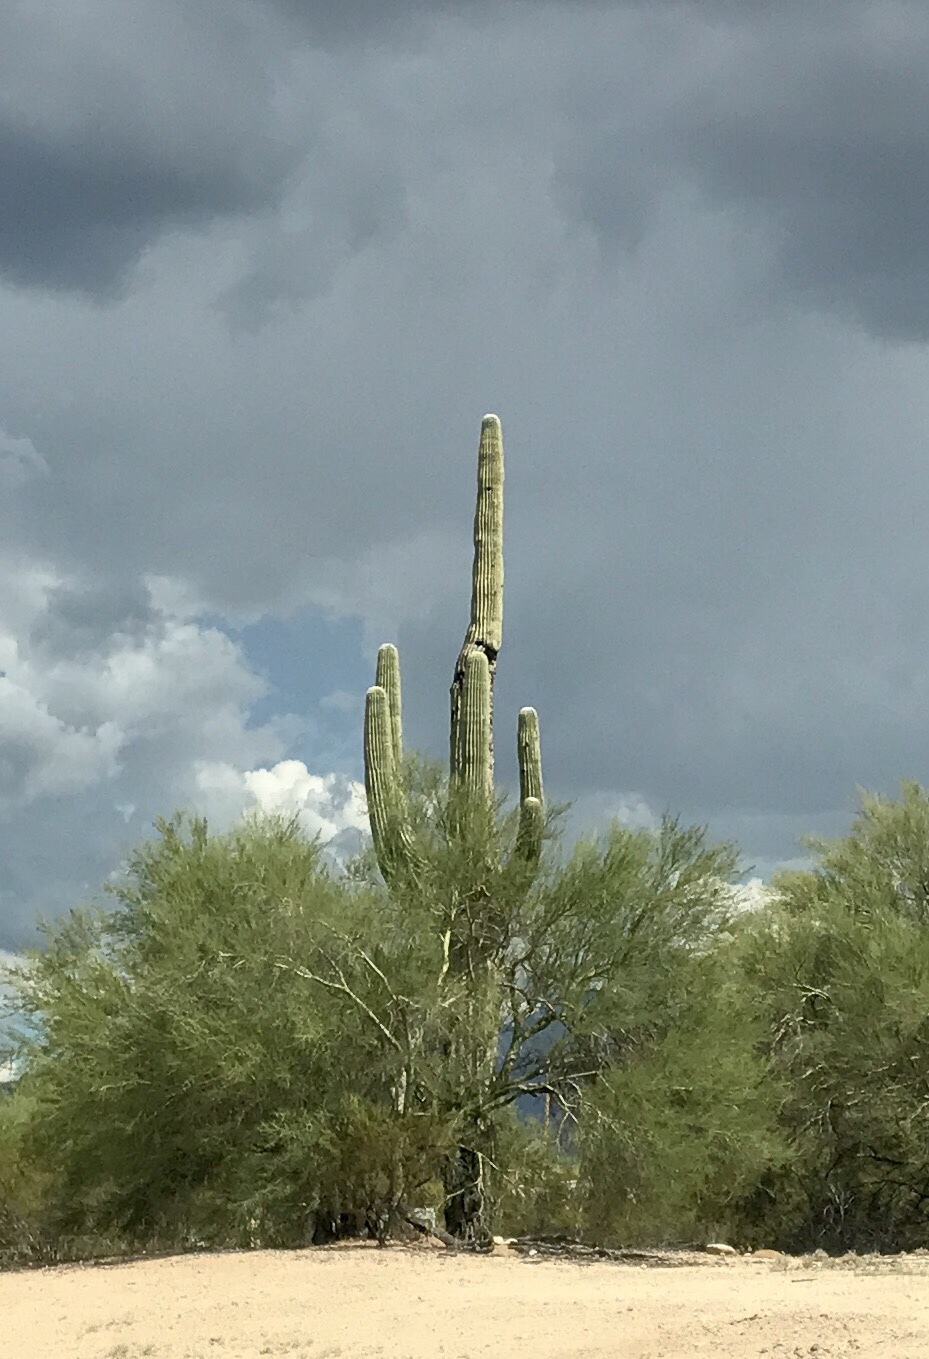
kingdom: Plantae
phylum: Tracheophyta
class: Magnoliopsida
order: Caryophyllales
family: Cactaceae
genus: Carnegiea
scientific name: Carnegiea gigantea
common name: Saguaro
